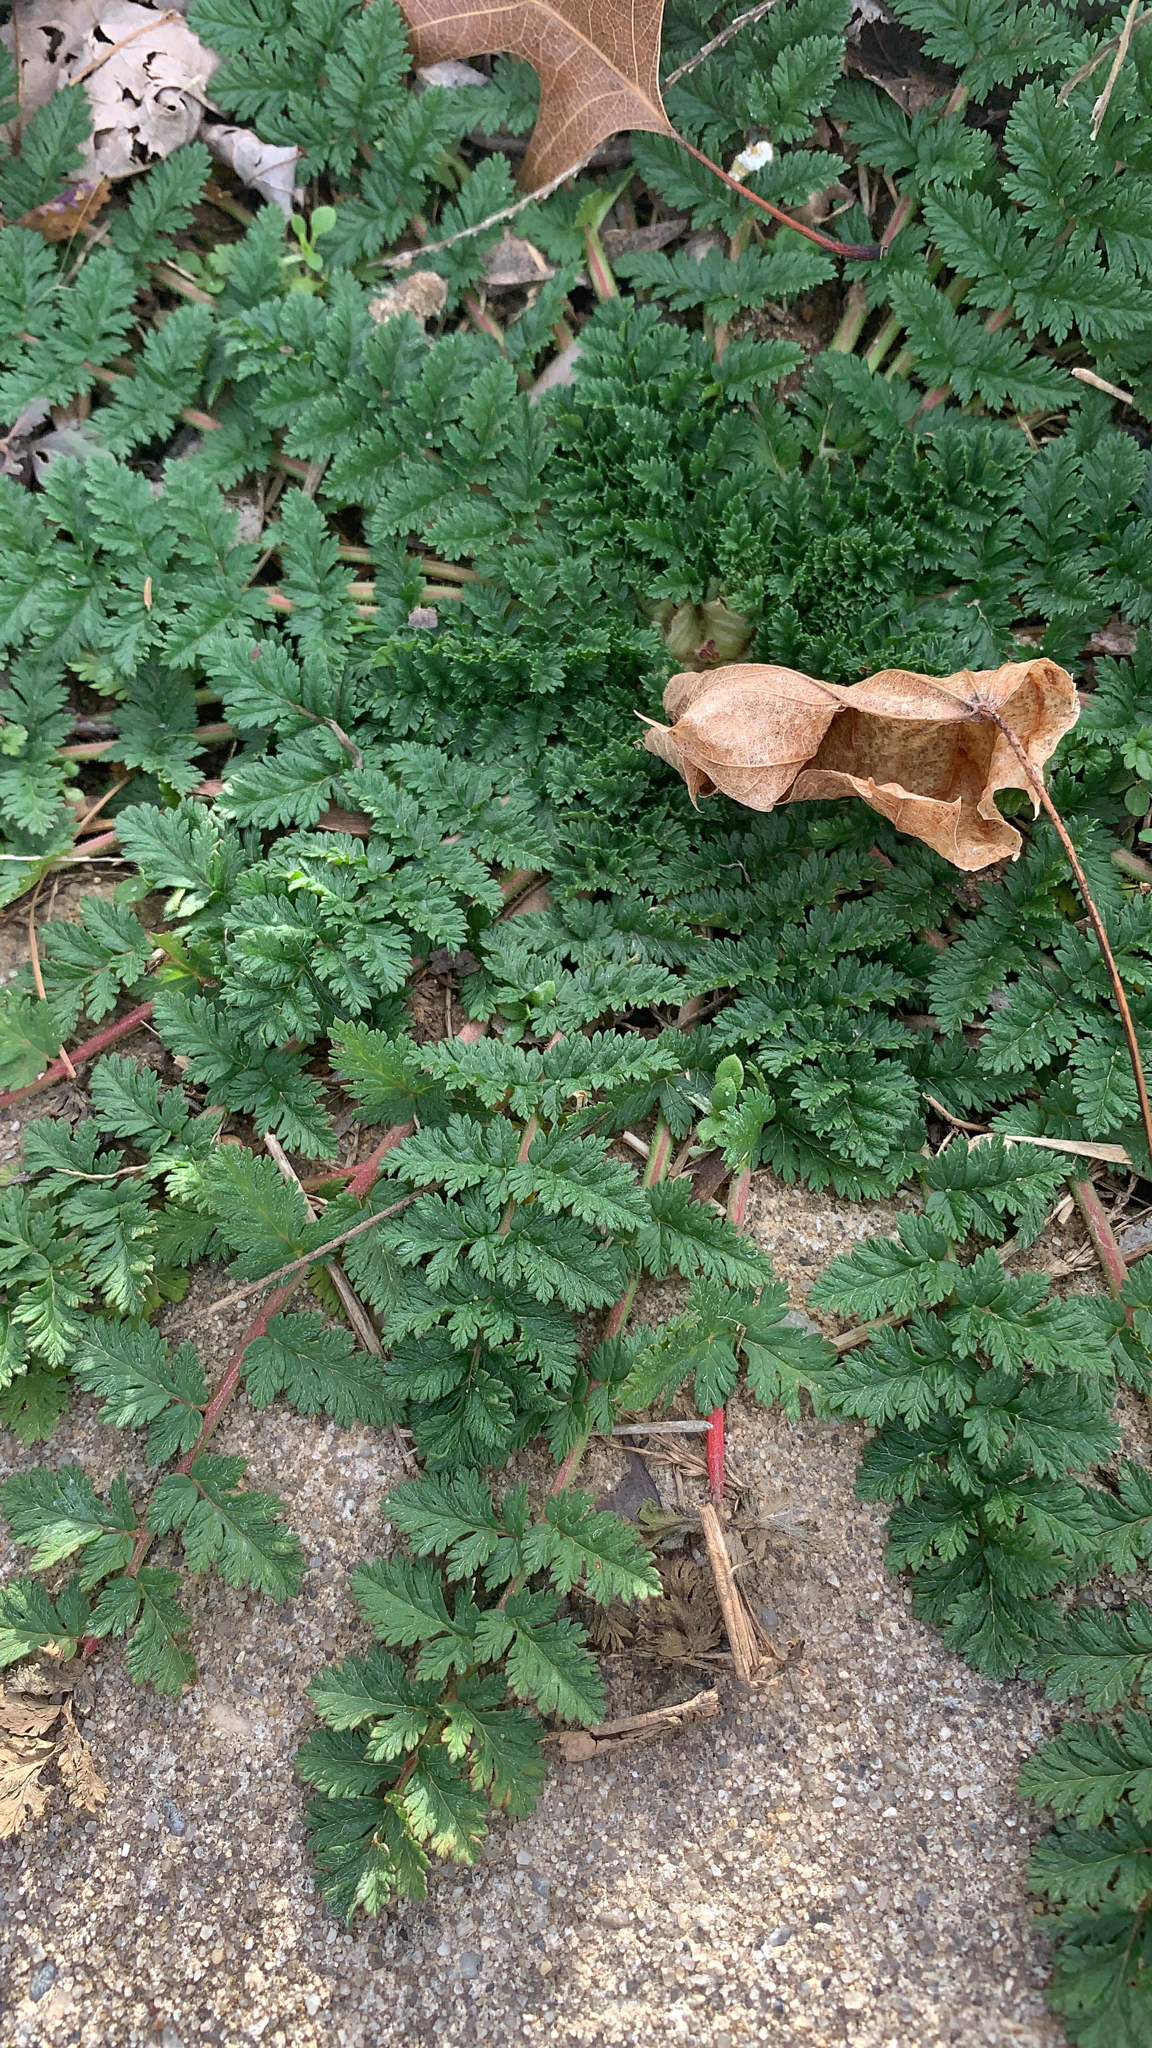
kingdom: Plantae
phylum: Tracheophyta
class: Magnoliopsida
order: Geraniales
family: Geraniaceae
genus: Erodium
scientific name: Erodium cicutarium
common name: Common stork's-bill
